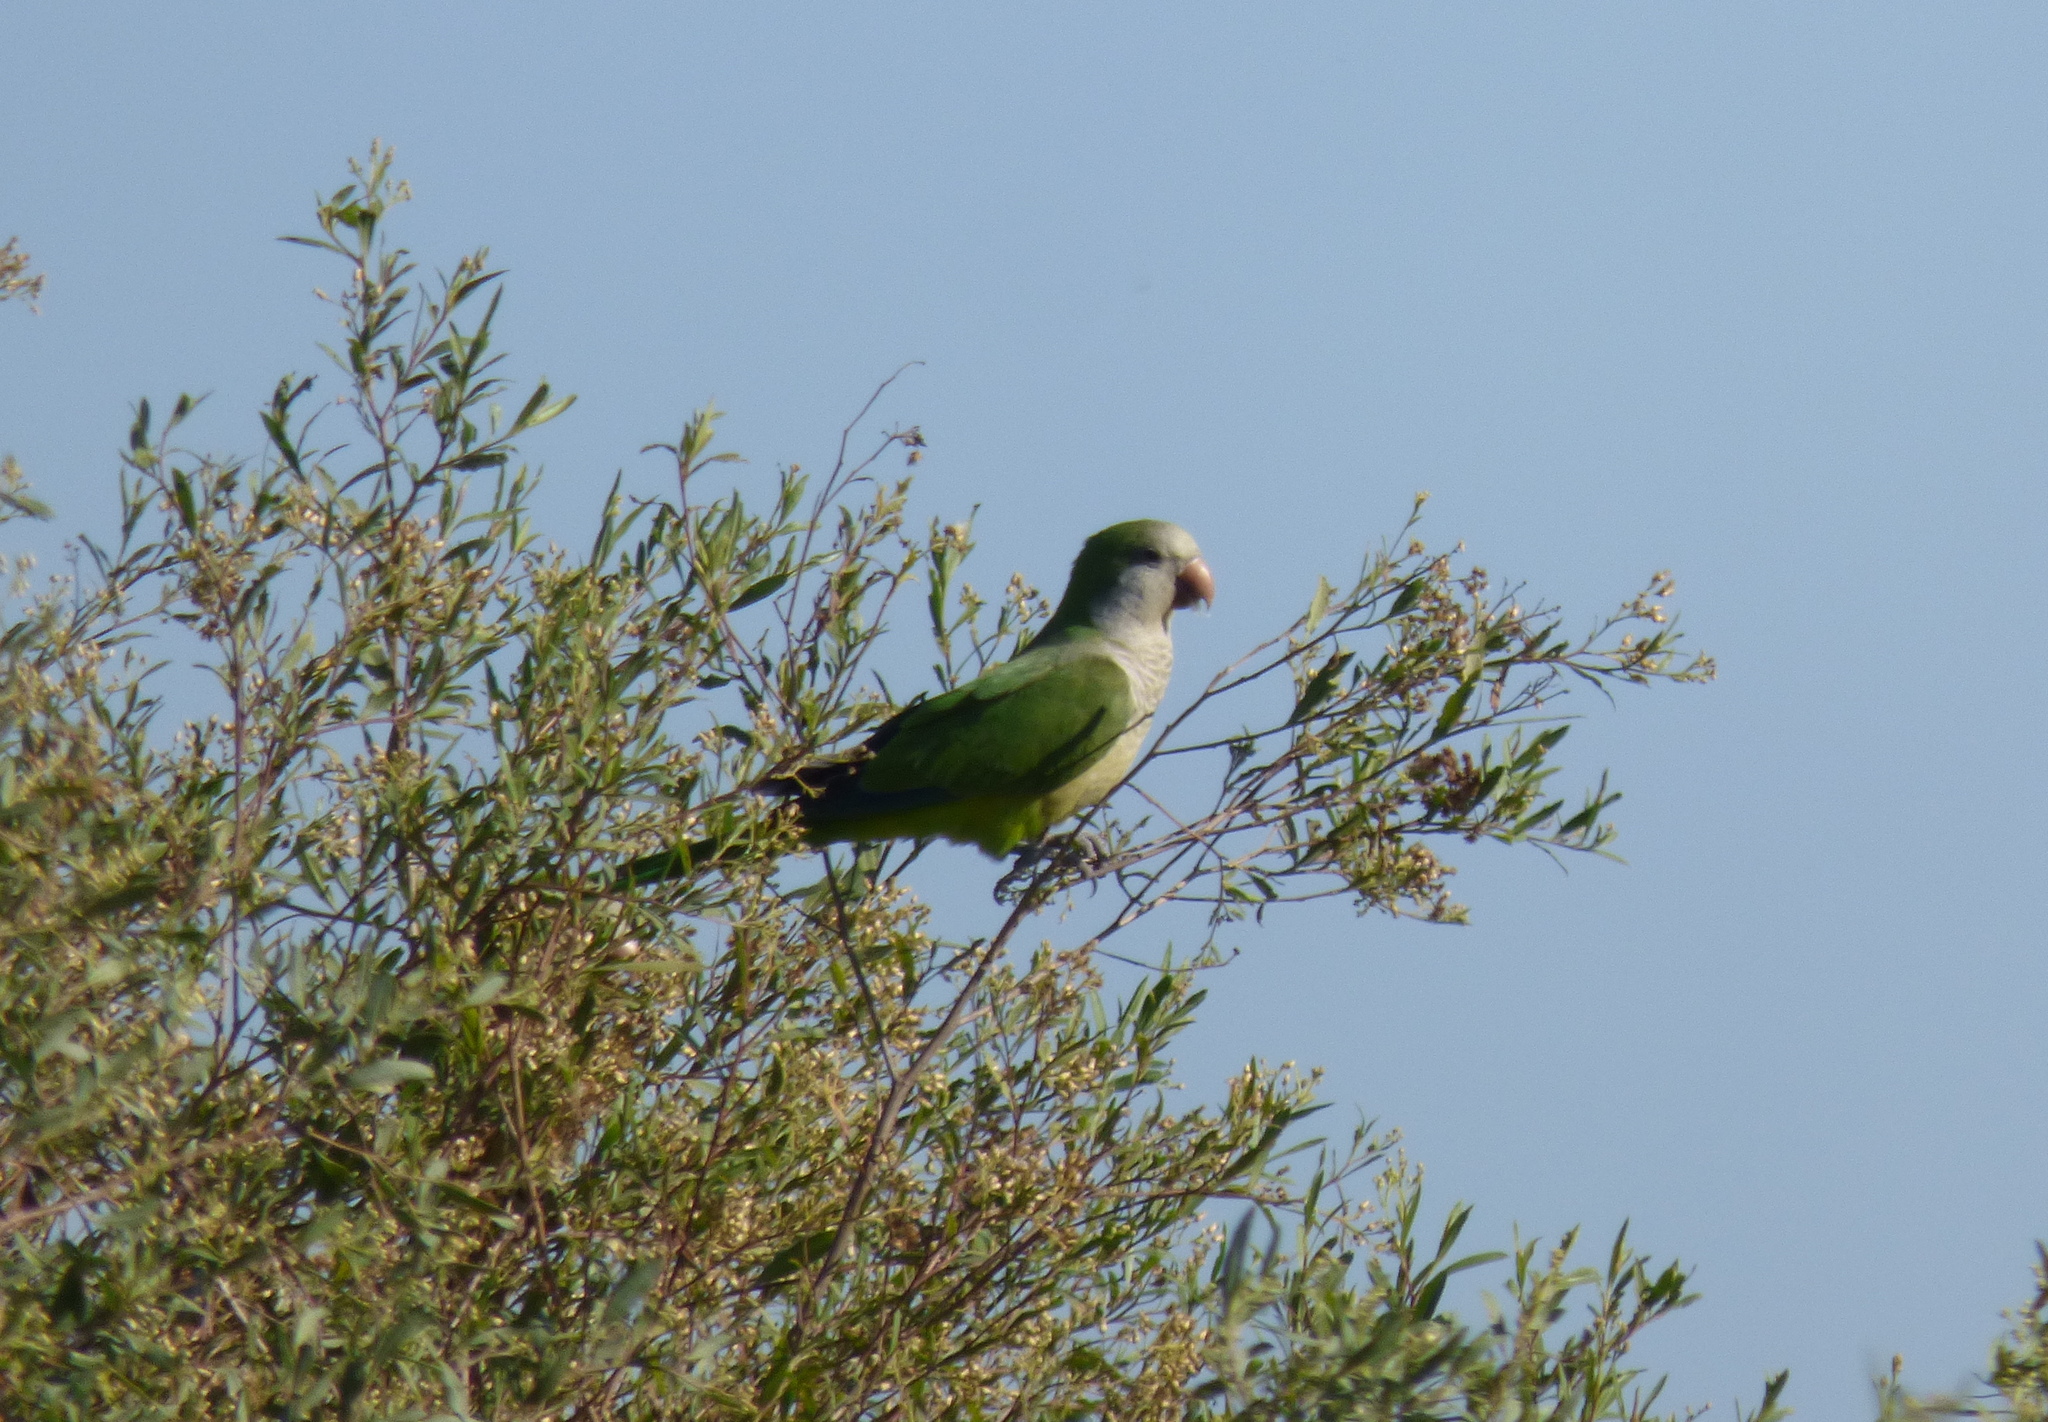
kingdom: Animalia
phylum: Chordata
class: Aves
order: Psittaciformes
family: Psittacidae
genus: Myiopsitta
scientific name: Myiopsitta monachus
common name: Monk parakeet
